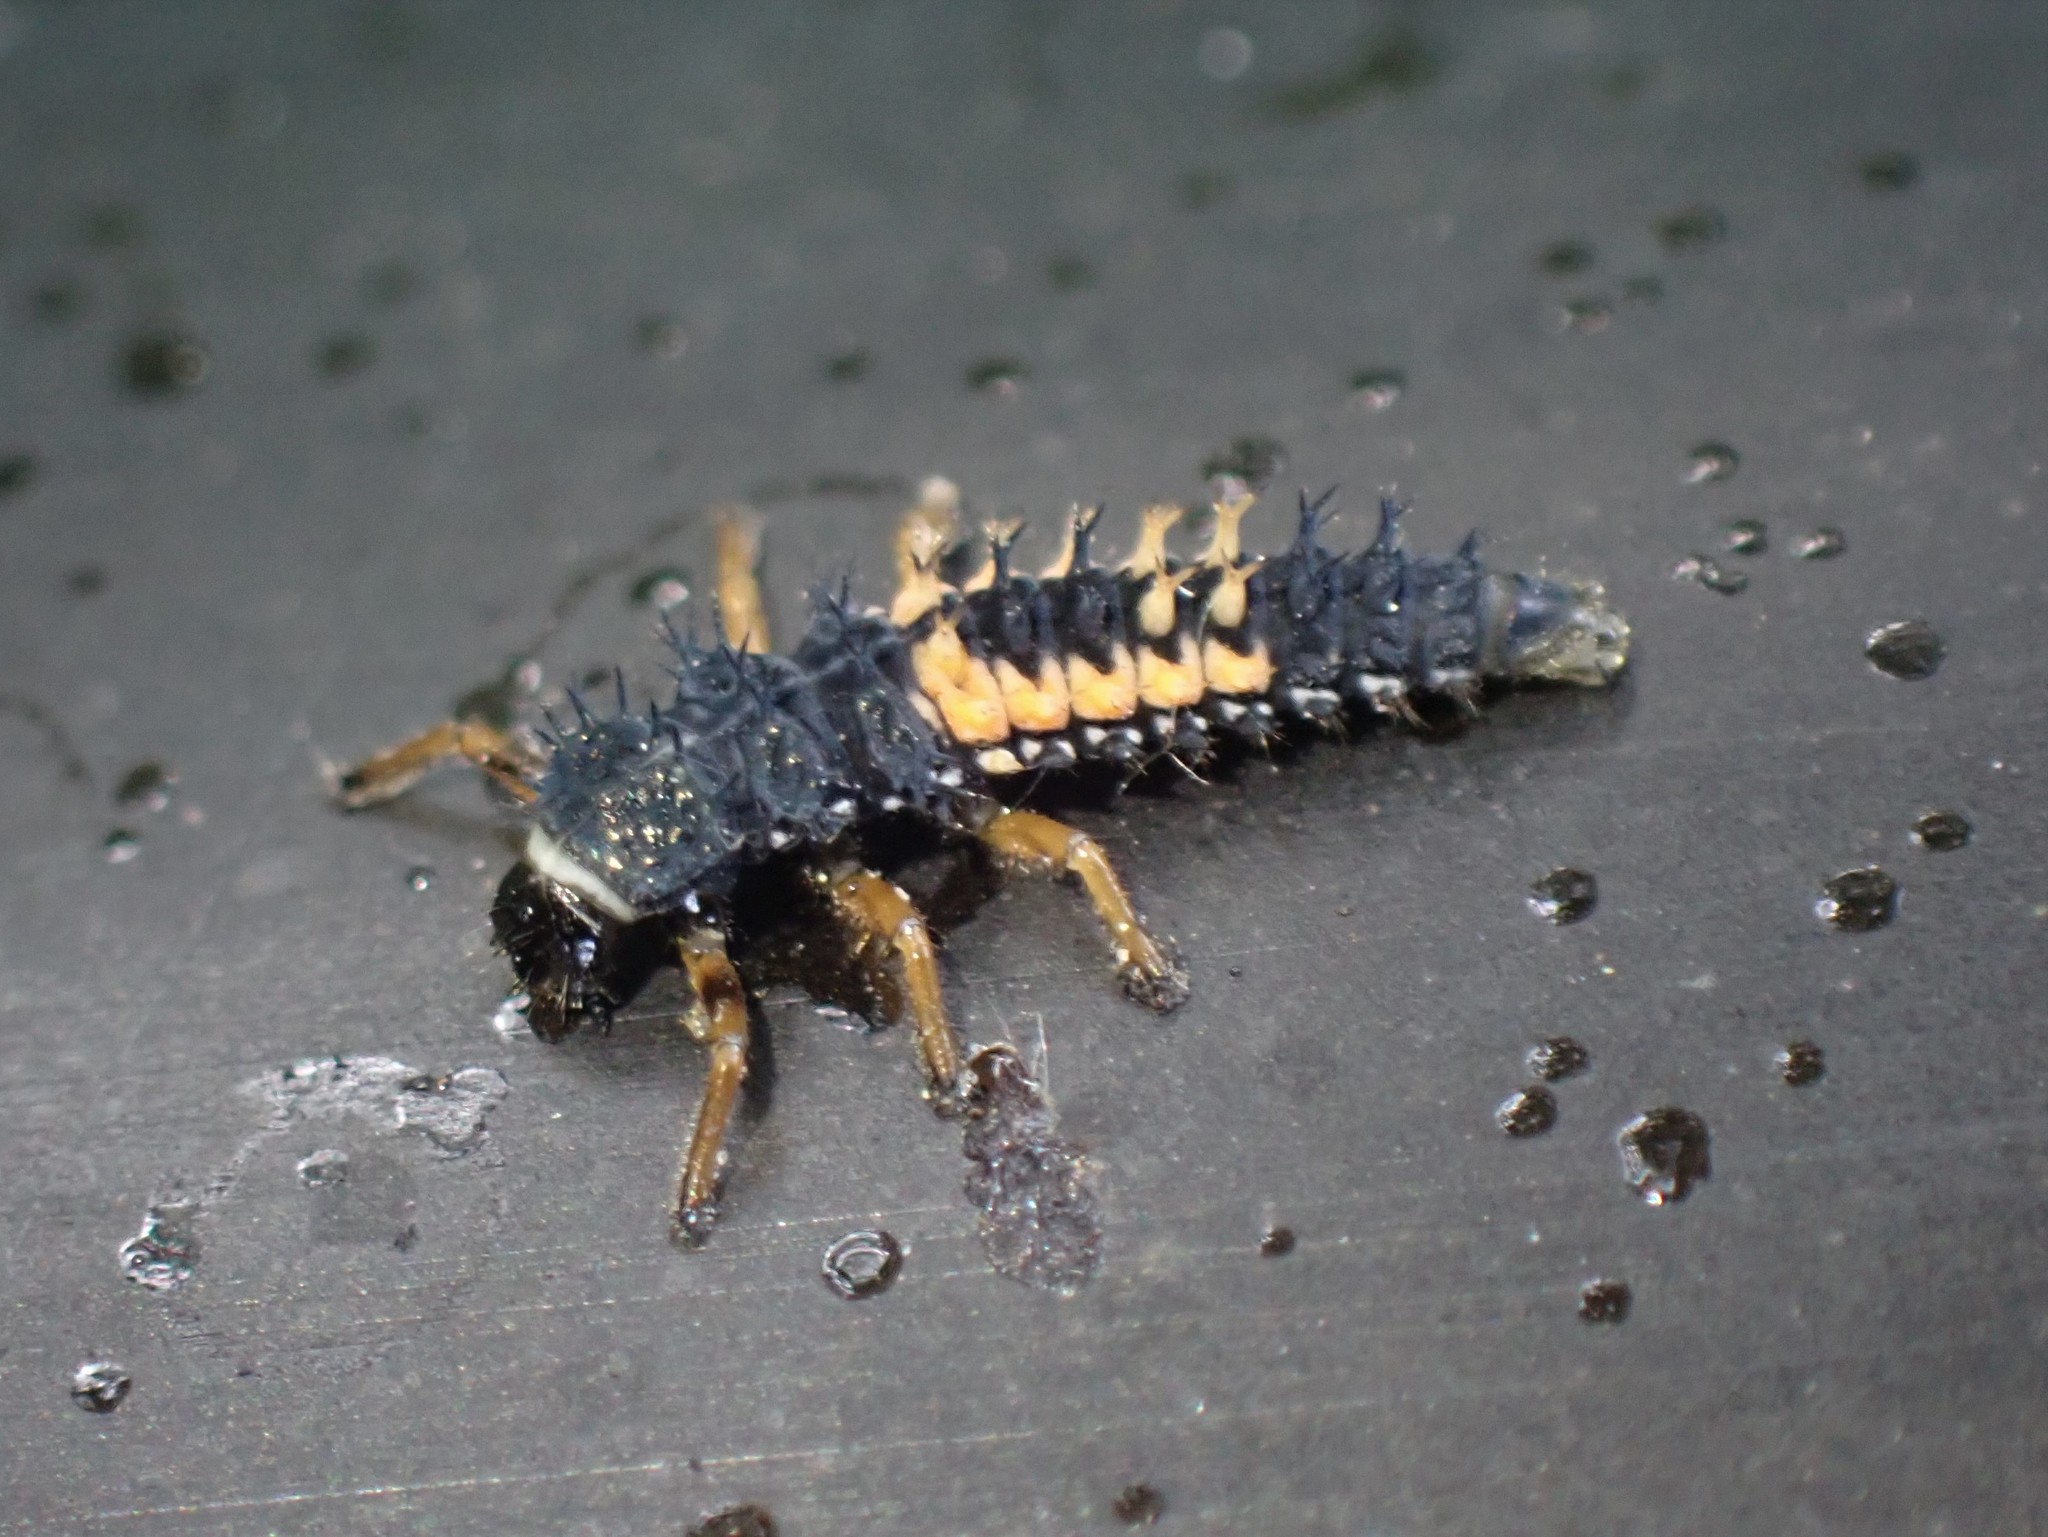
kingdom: Animalia
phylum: Arthropoda
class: Insecta
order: Coleoptera
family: Coccinellidae
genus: Harmonia
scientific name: Harmonia axyridis
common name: Harlequin ladybird
